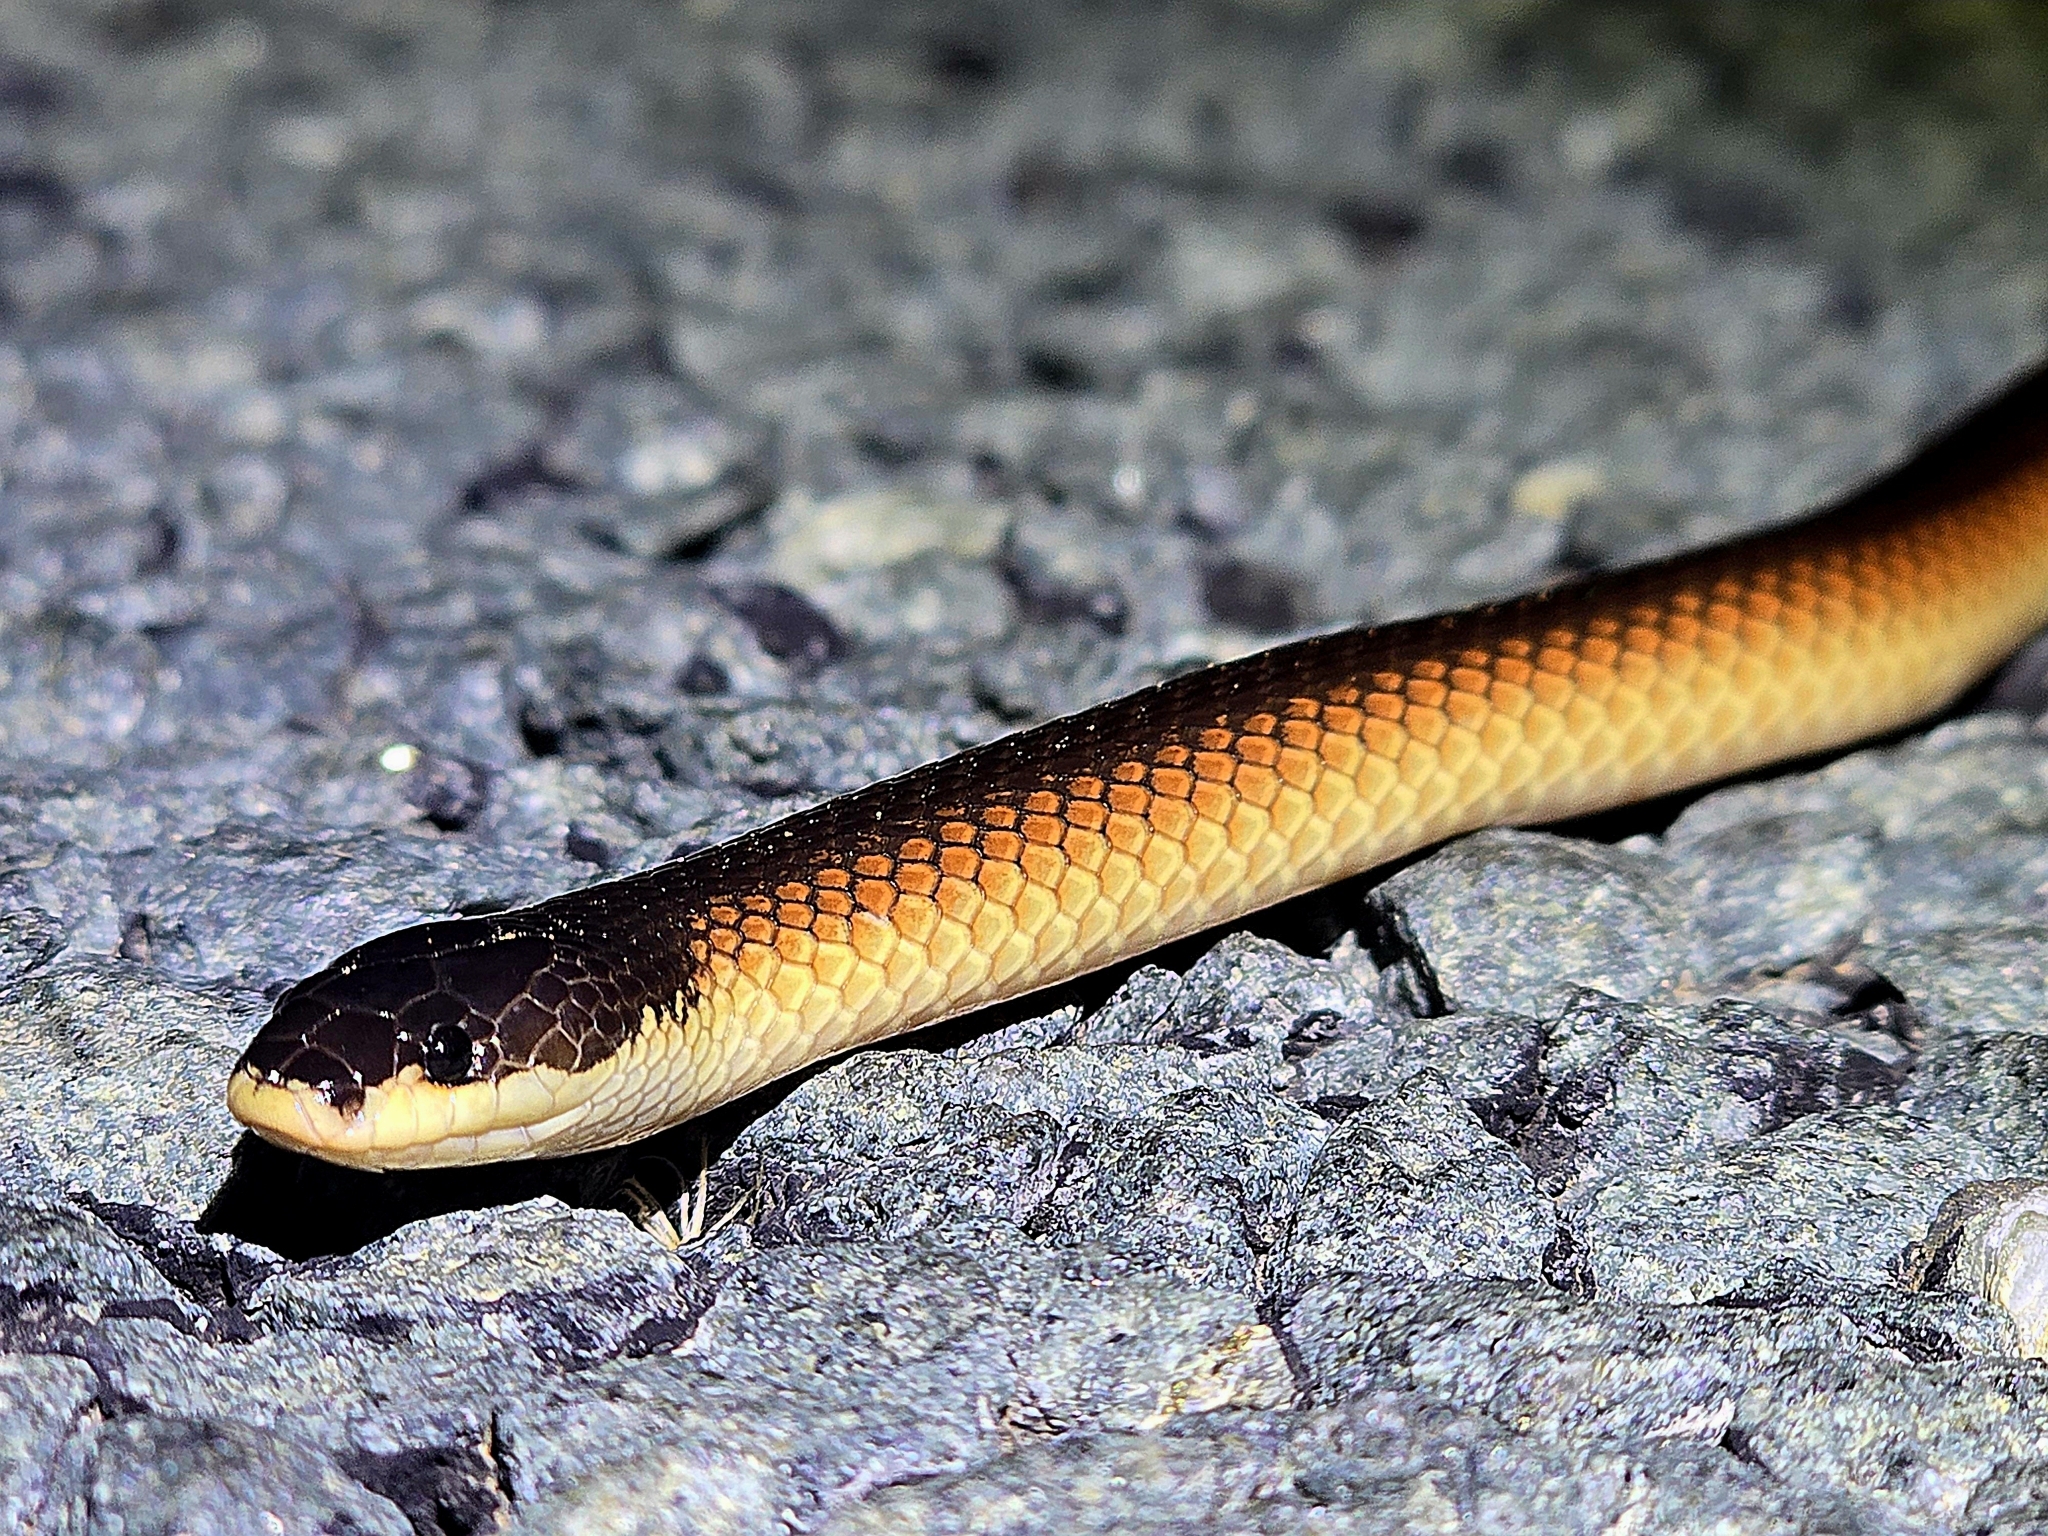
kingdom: Animalia
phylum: Chordata
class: Squamata
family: Elapidae
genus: Suta
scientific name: Suta nigriceps
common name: Mallee black-backed snake
